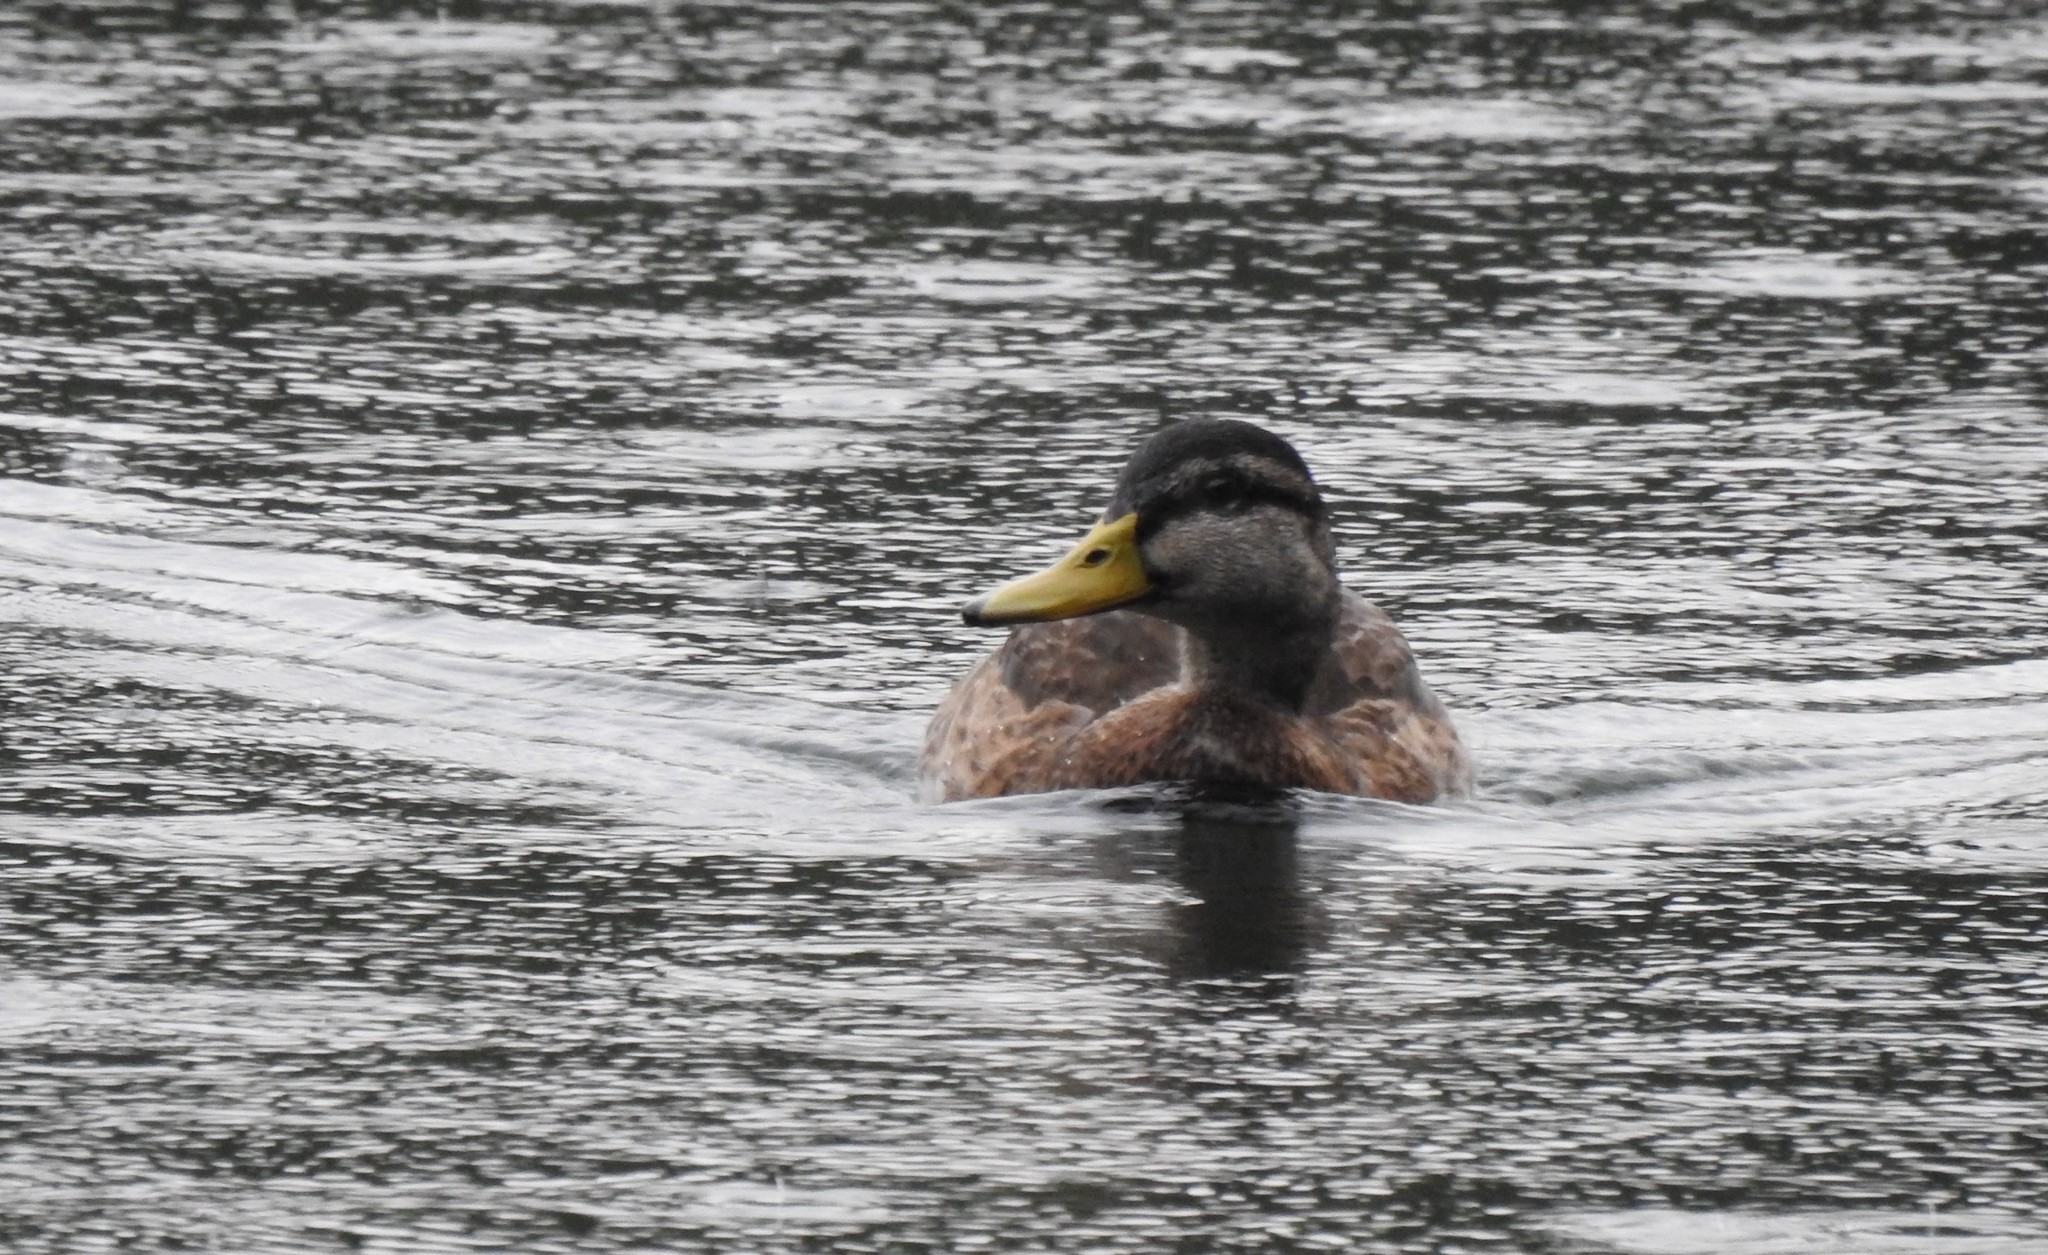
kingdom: Animalia
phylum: Chordata
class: Aves
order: Anseriformes
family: Anatidae
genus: Anas
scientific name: Anas platyrhynchos
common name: Mallard
